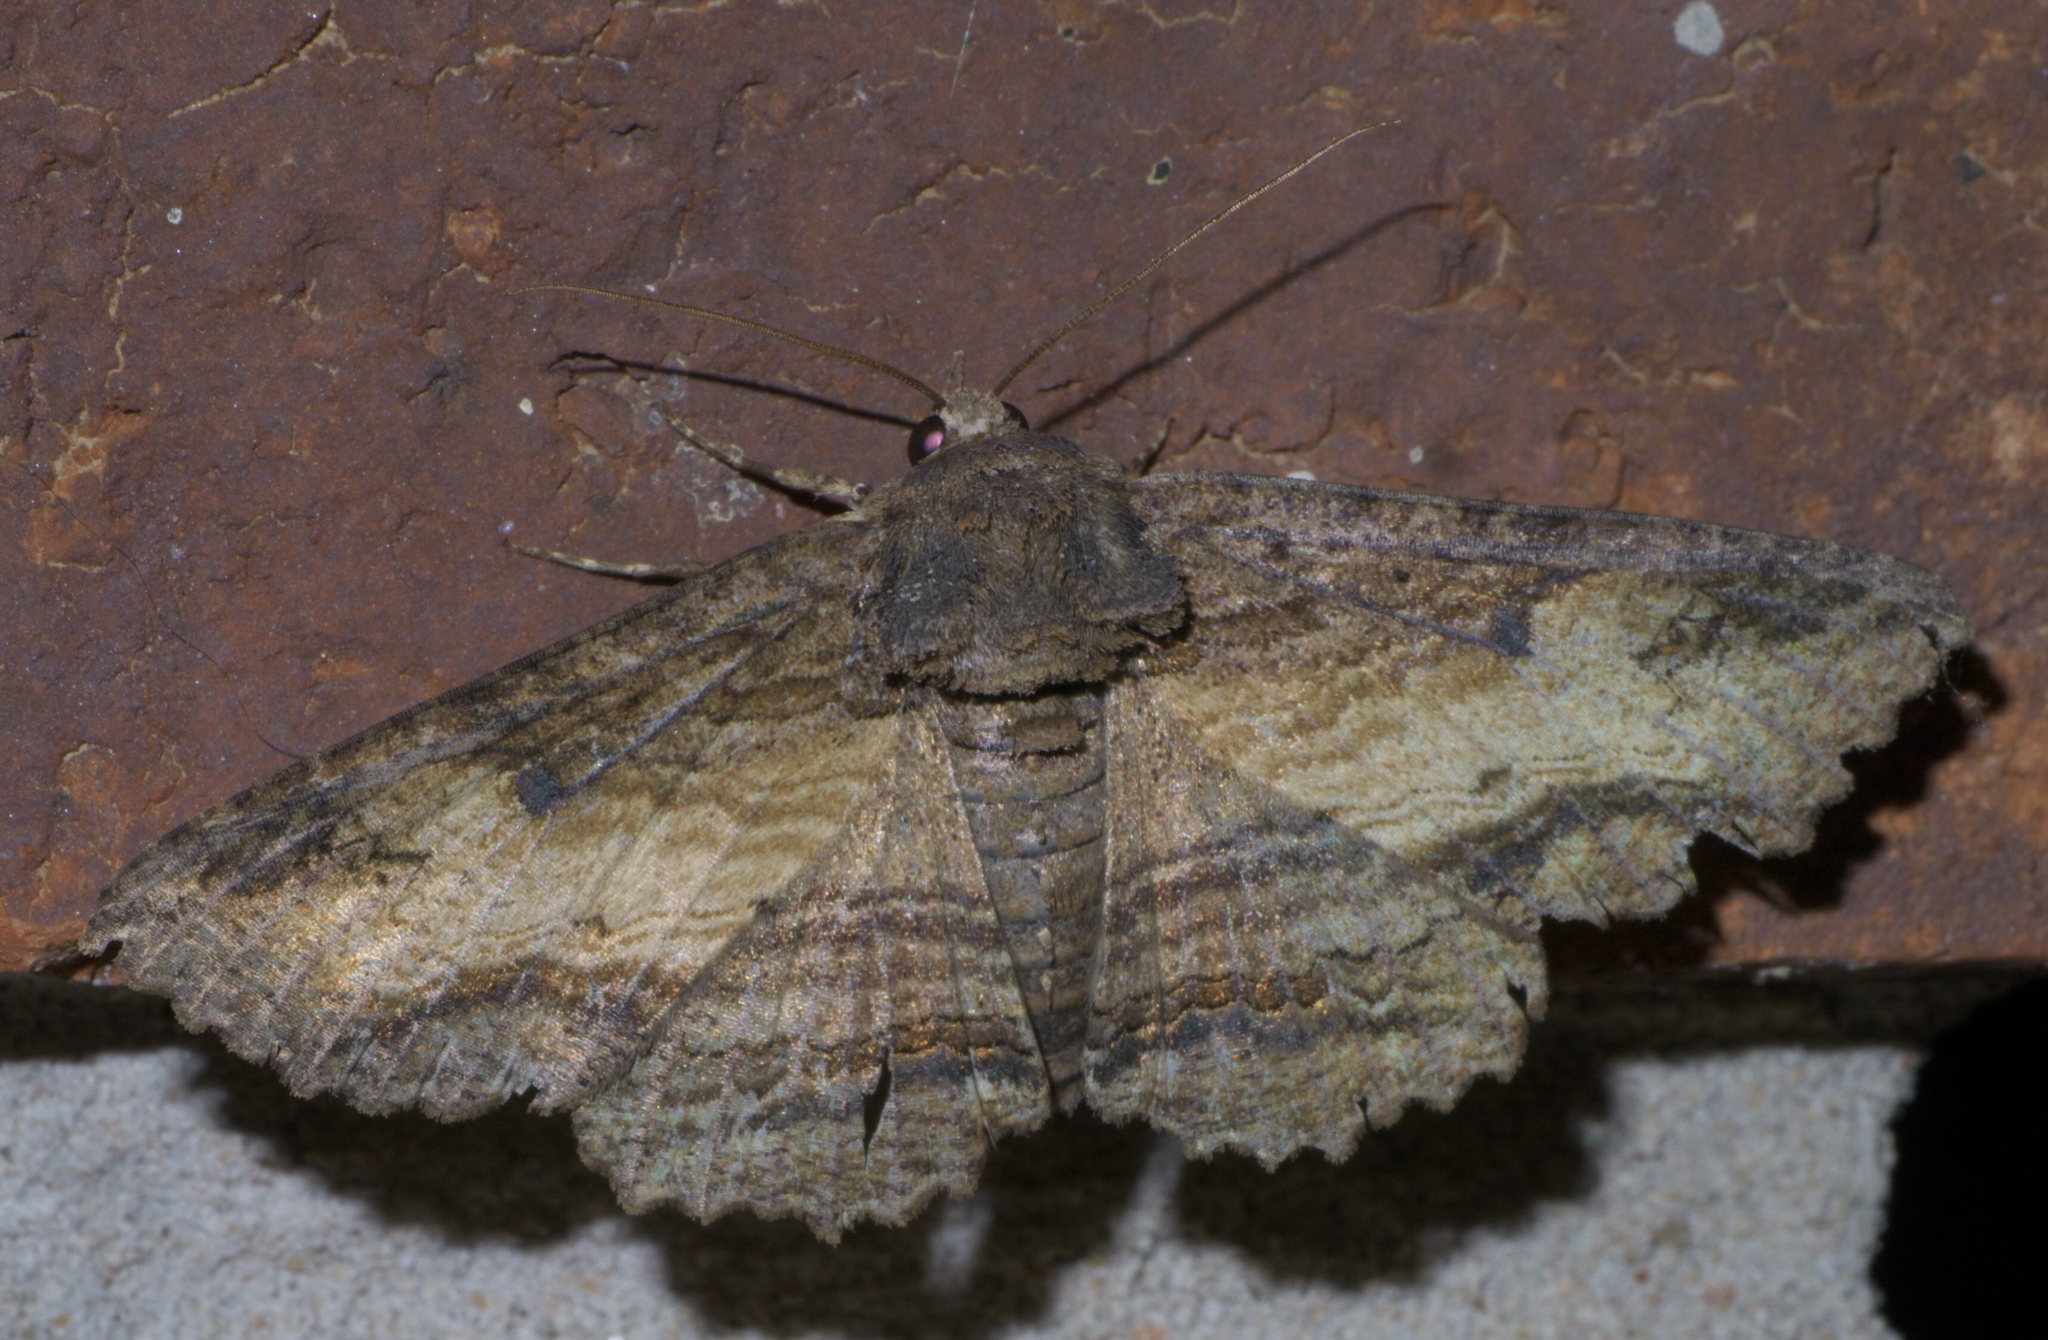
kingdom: Animalia
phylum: Arthropoda
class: Insecta
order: Lepidoptera
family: Erebidae
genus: Zale
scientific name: Zale lunata
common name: Lunate zale moth
